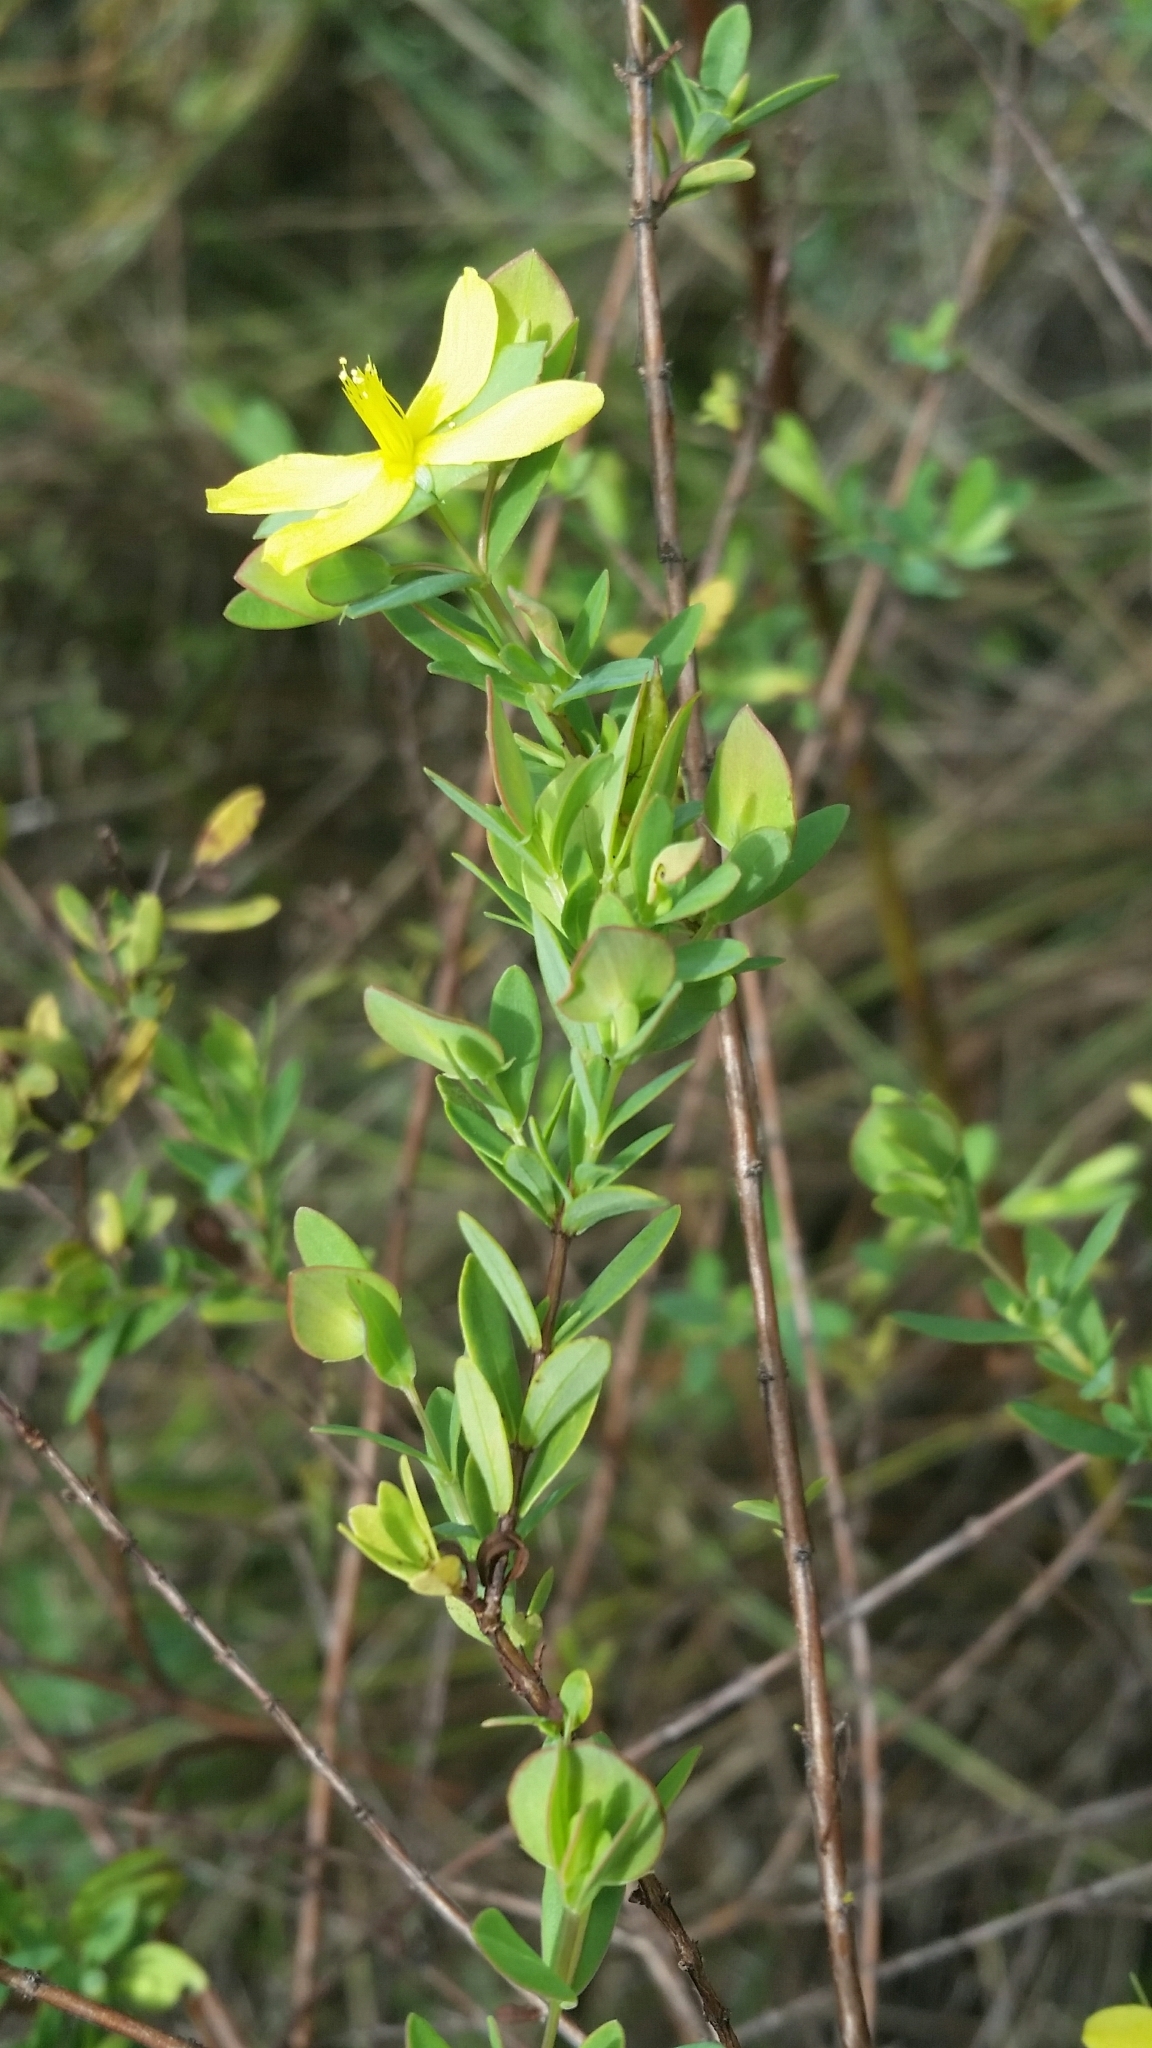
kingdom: Plantae
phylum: Tracheophyta
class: Magnoliopsida
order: Malpighiales
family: Hypericaceae
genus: Hypericum
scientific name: Hypericum hypericoides
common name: St. andrew's cross
